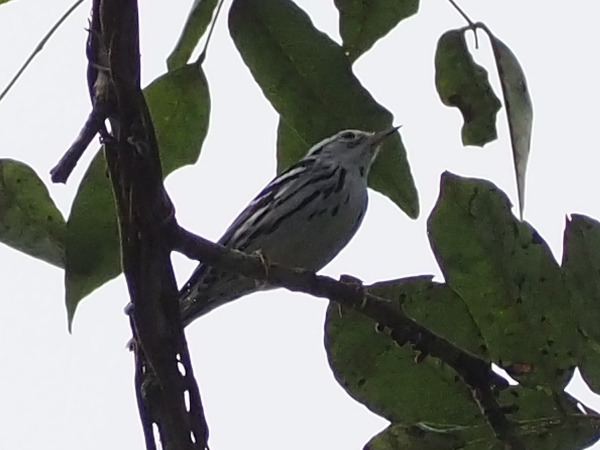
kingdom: Animalia
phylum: Chordata
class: Aves
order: Passeriformes
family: Parulidae
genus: Mniotilta
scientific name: Mniotilta varia
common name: Black-and-white warbler
